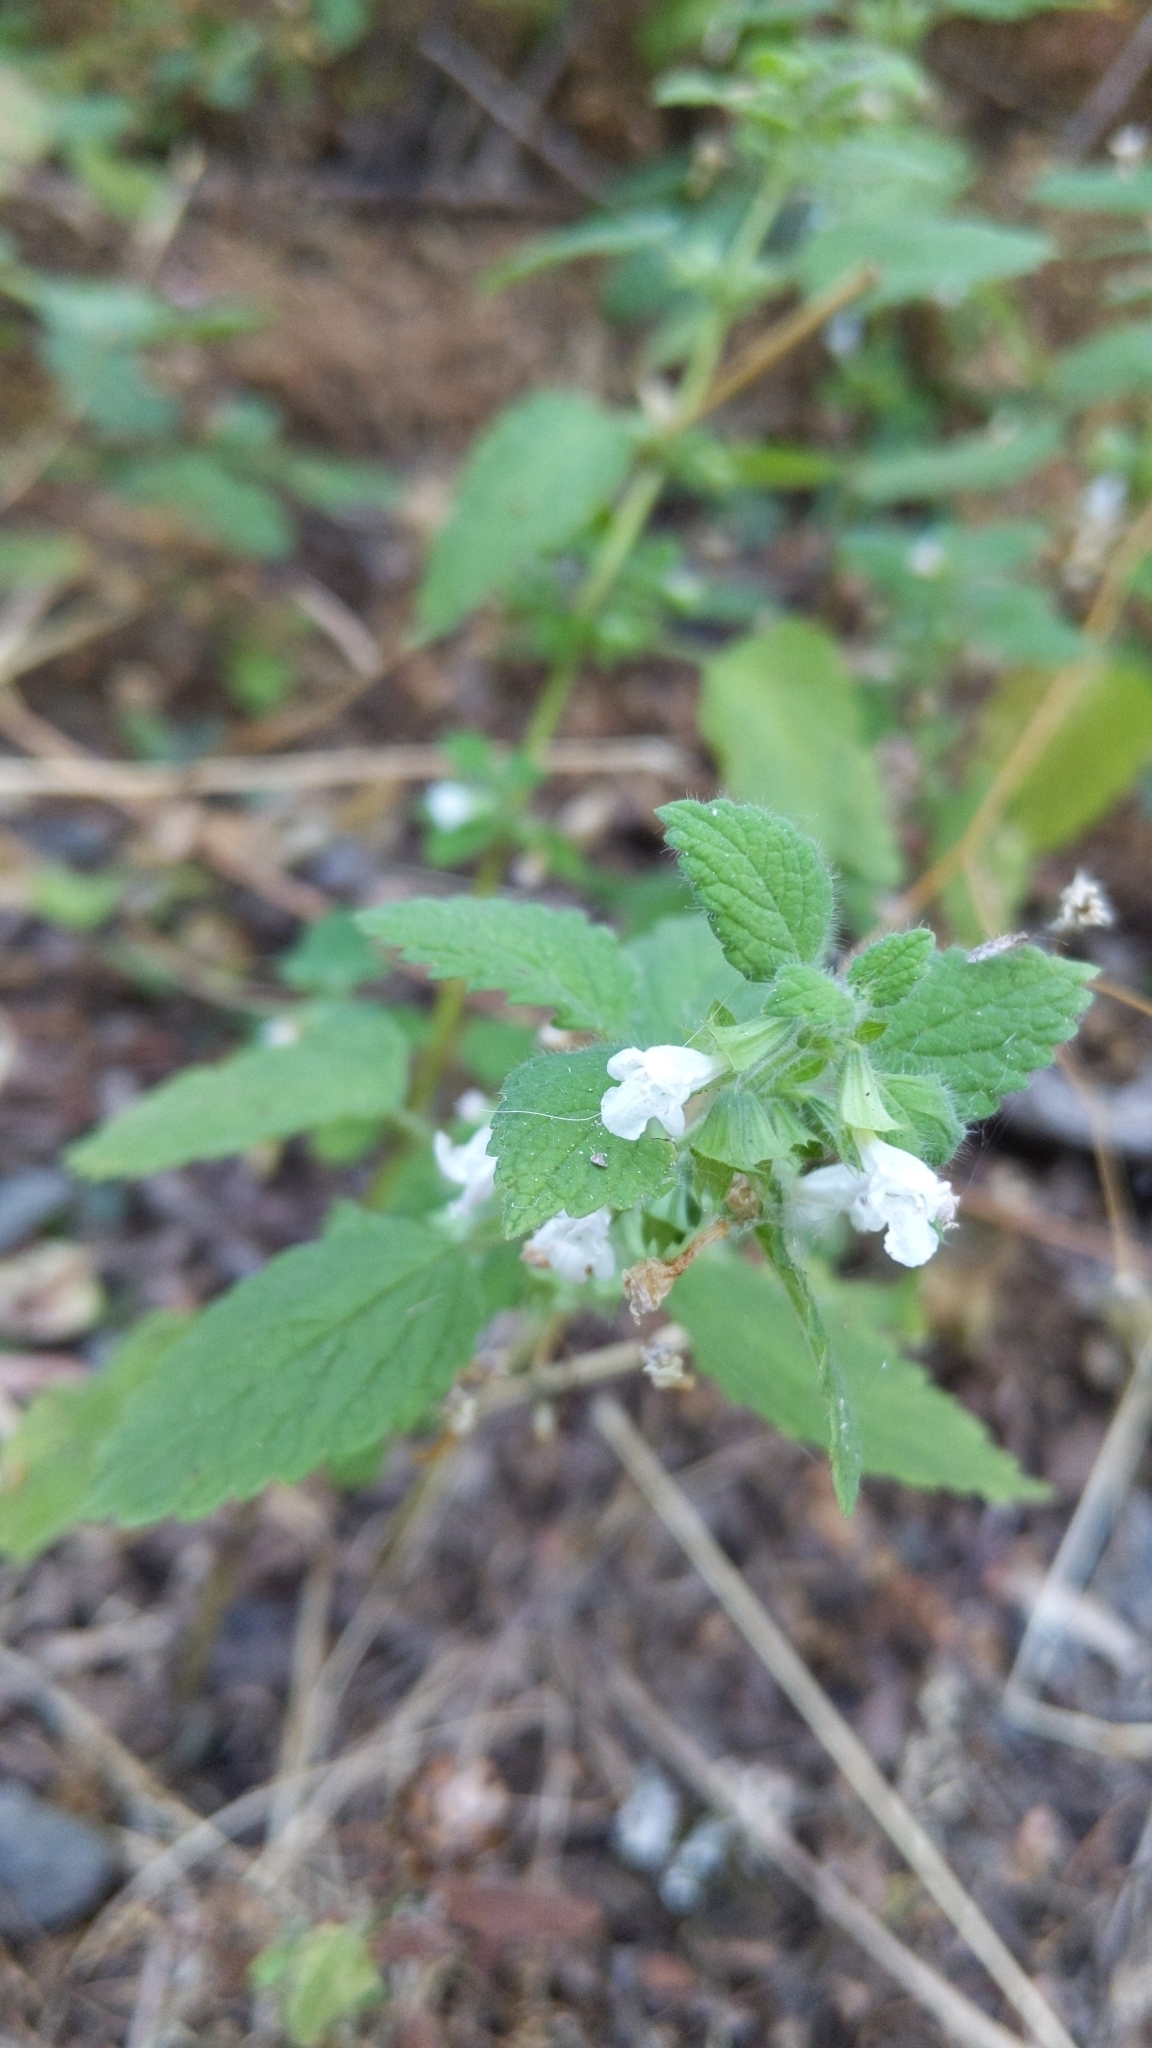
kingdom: Plantae
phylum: Tracheophyta
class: Magnoliopsida
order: Lamiales
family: Lamiaceae
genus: Melissa
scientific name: Melissa officinalis
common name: Balm
